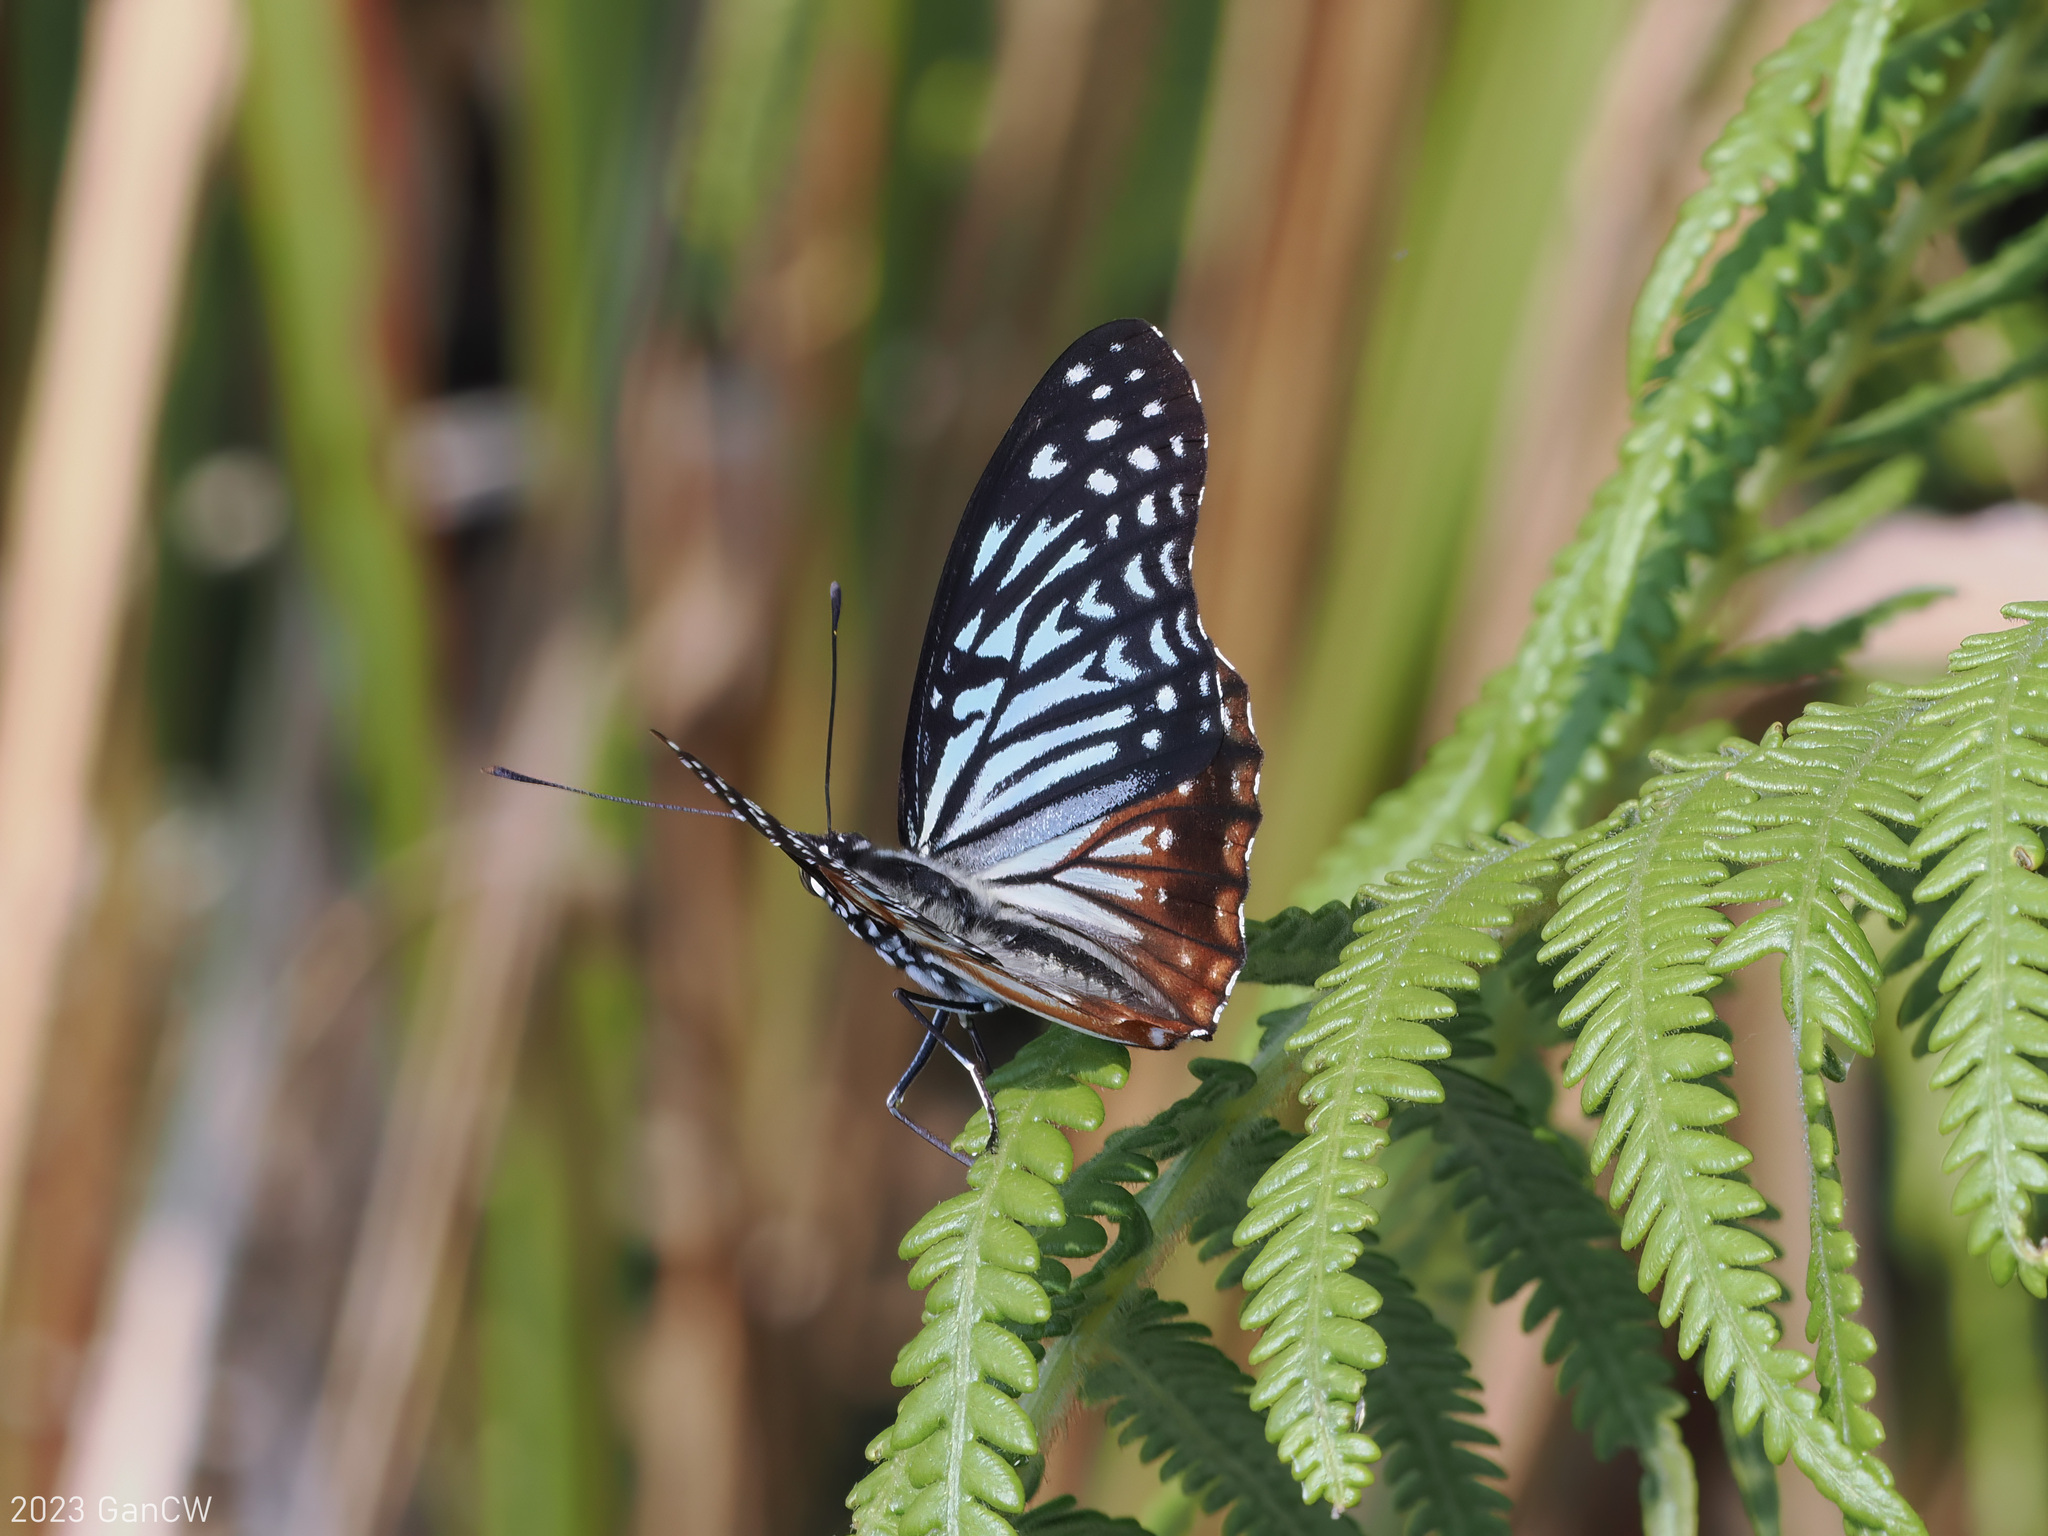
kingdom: Animalia
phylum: Arthropoda
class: Insecta
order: Lepidoptera
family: Nymphalidae
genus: Hestinalis
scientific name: Hestinalis nama
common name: Circe
